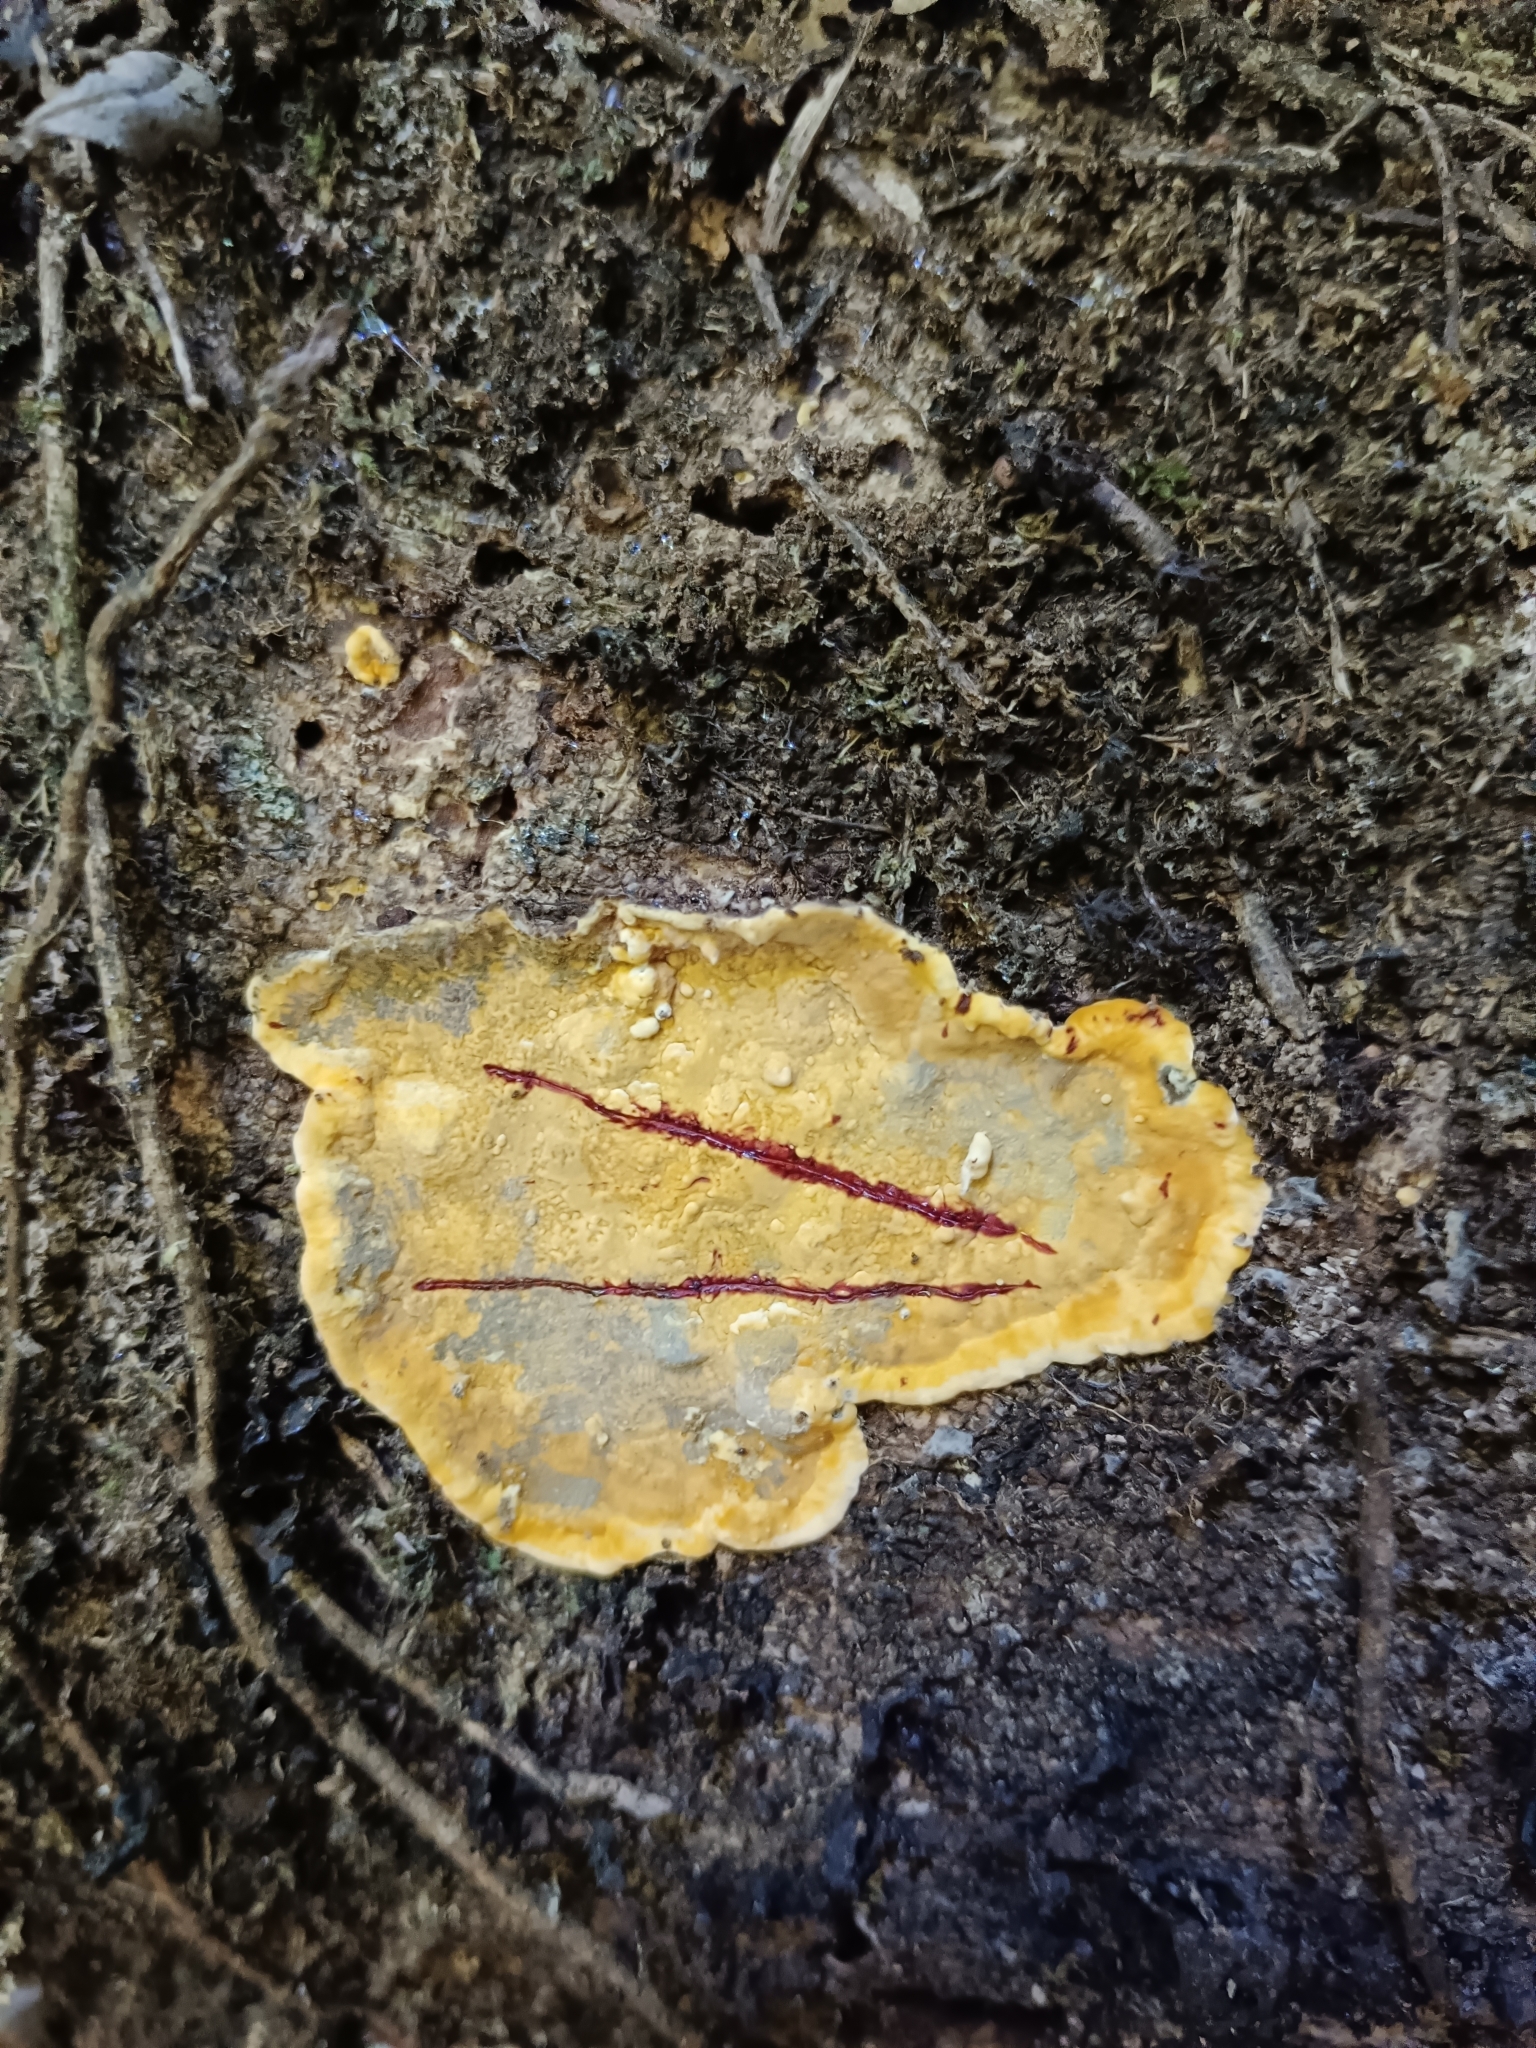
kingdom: Fungi
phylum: Basidiomycota
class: Agaricomycetes
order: Russulales
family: Stereaceae
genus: Stereum
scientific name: Stereum greslebiniae
